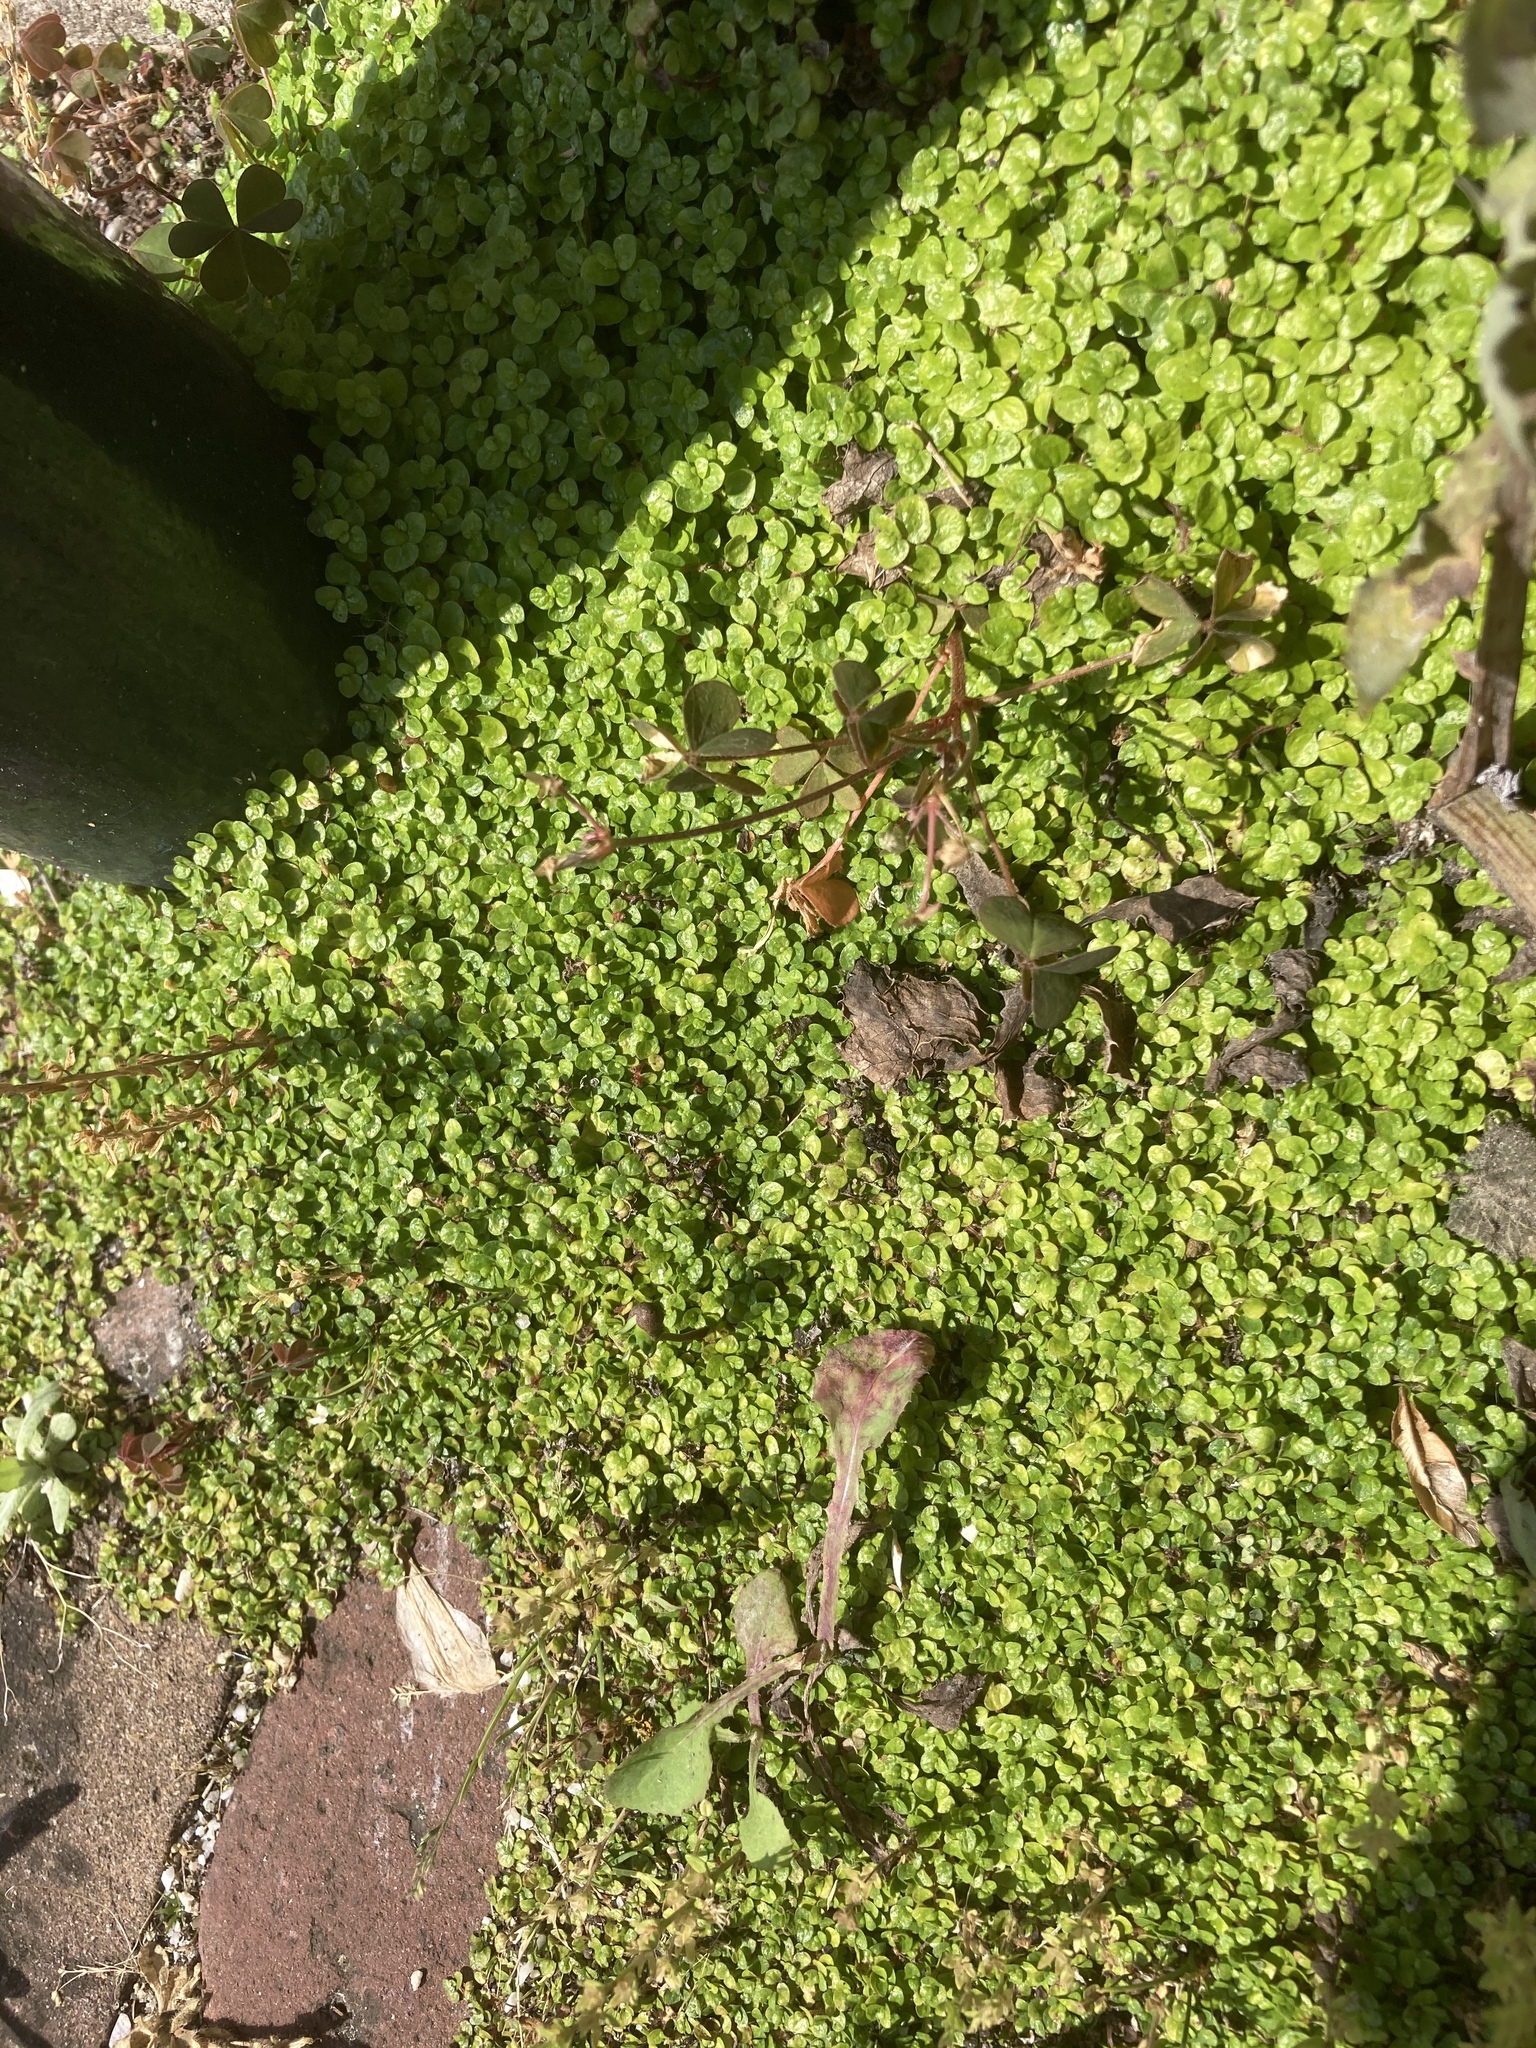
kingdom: Plantae
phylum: Tracheophyta
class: Magnoliopsida
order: Rosales
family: Urticaceae
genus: Soleirolia
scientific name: Soleirolia soleirolii
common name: Mind-your-own-business
